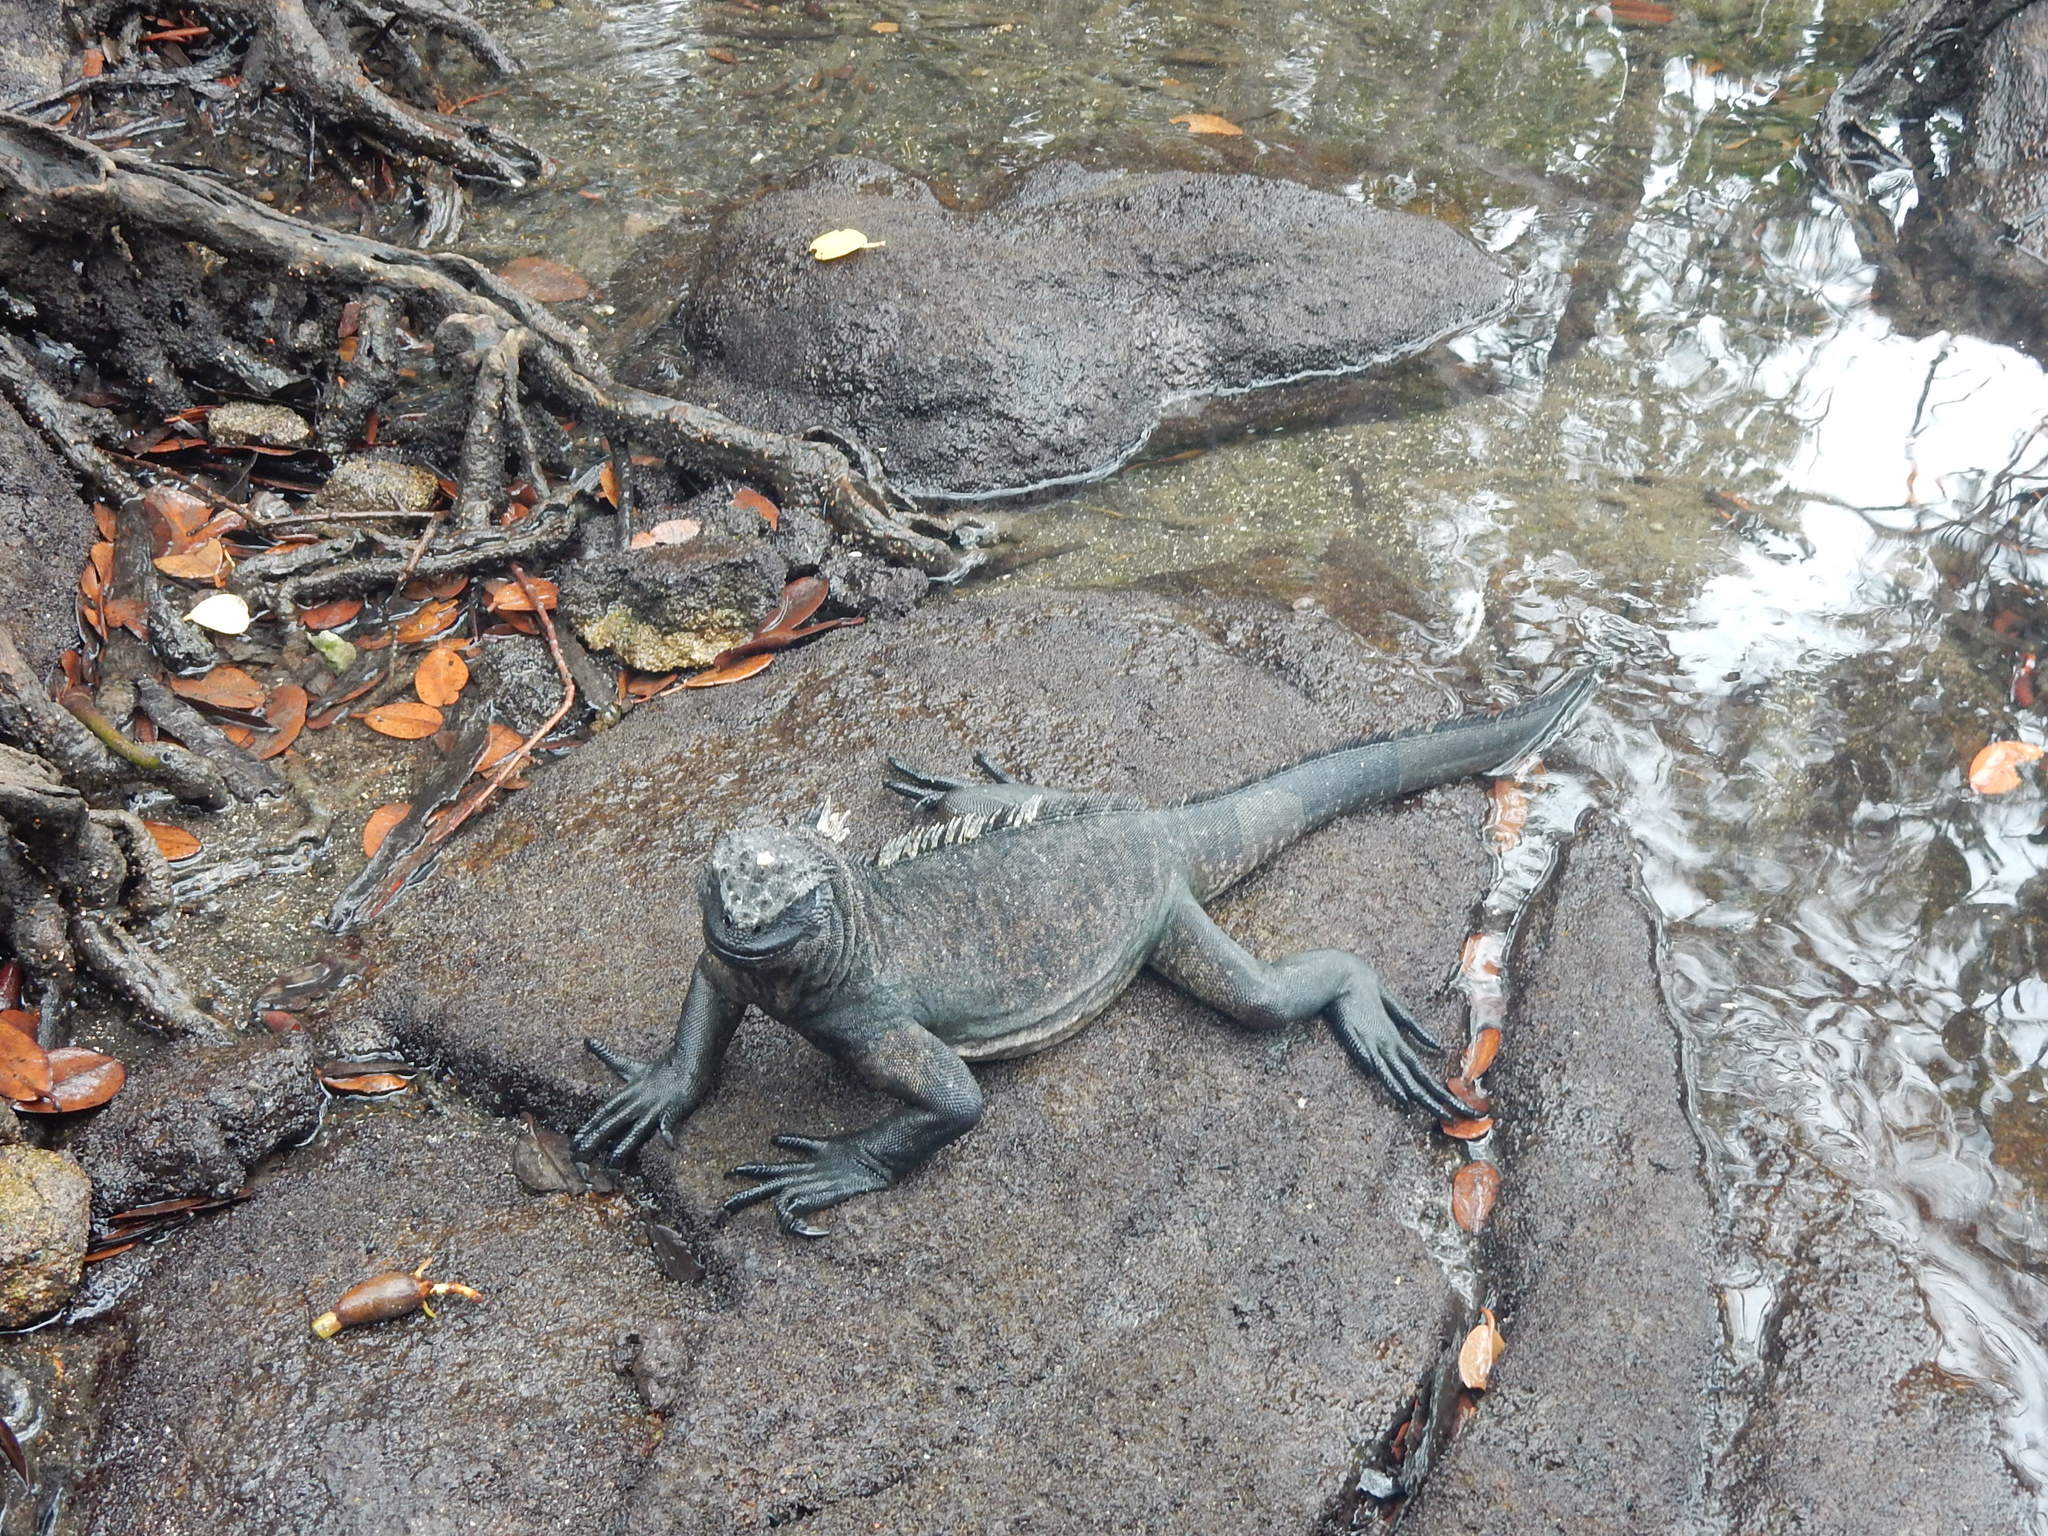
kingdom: Animalia
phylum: Chordata
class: Squamata
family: Iguanidae
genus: Amblyrhynchus
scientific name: Amblyrhynchus cristatus
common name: Marine iguana
